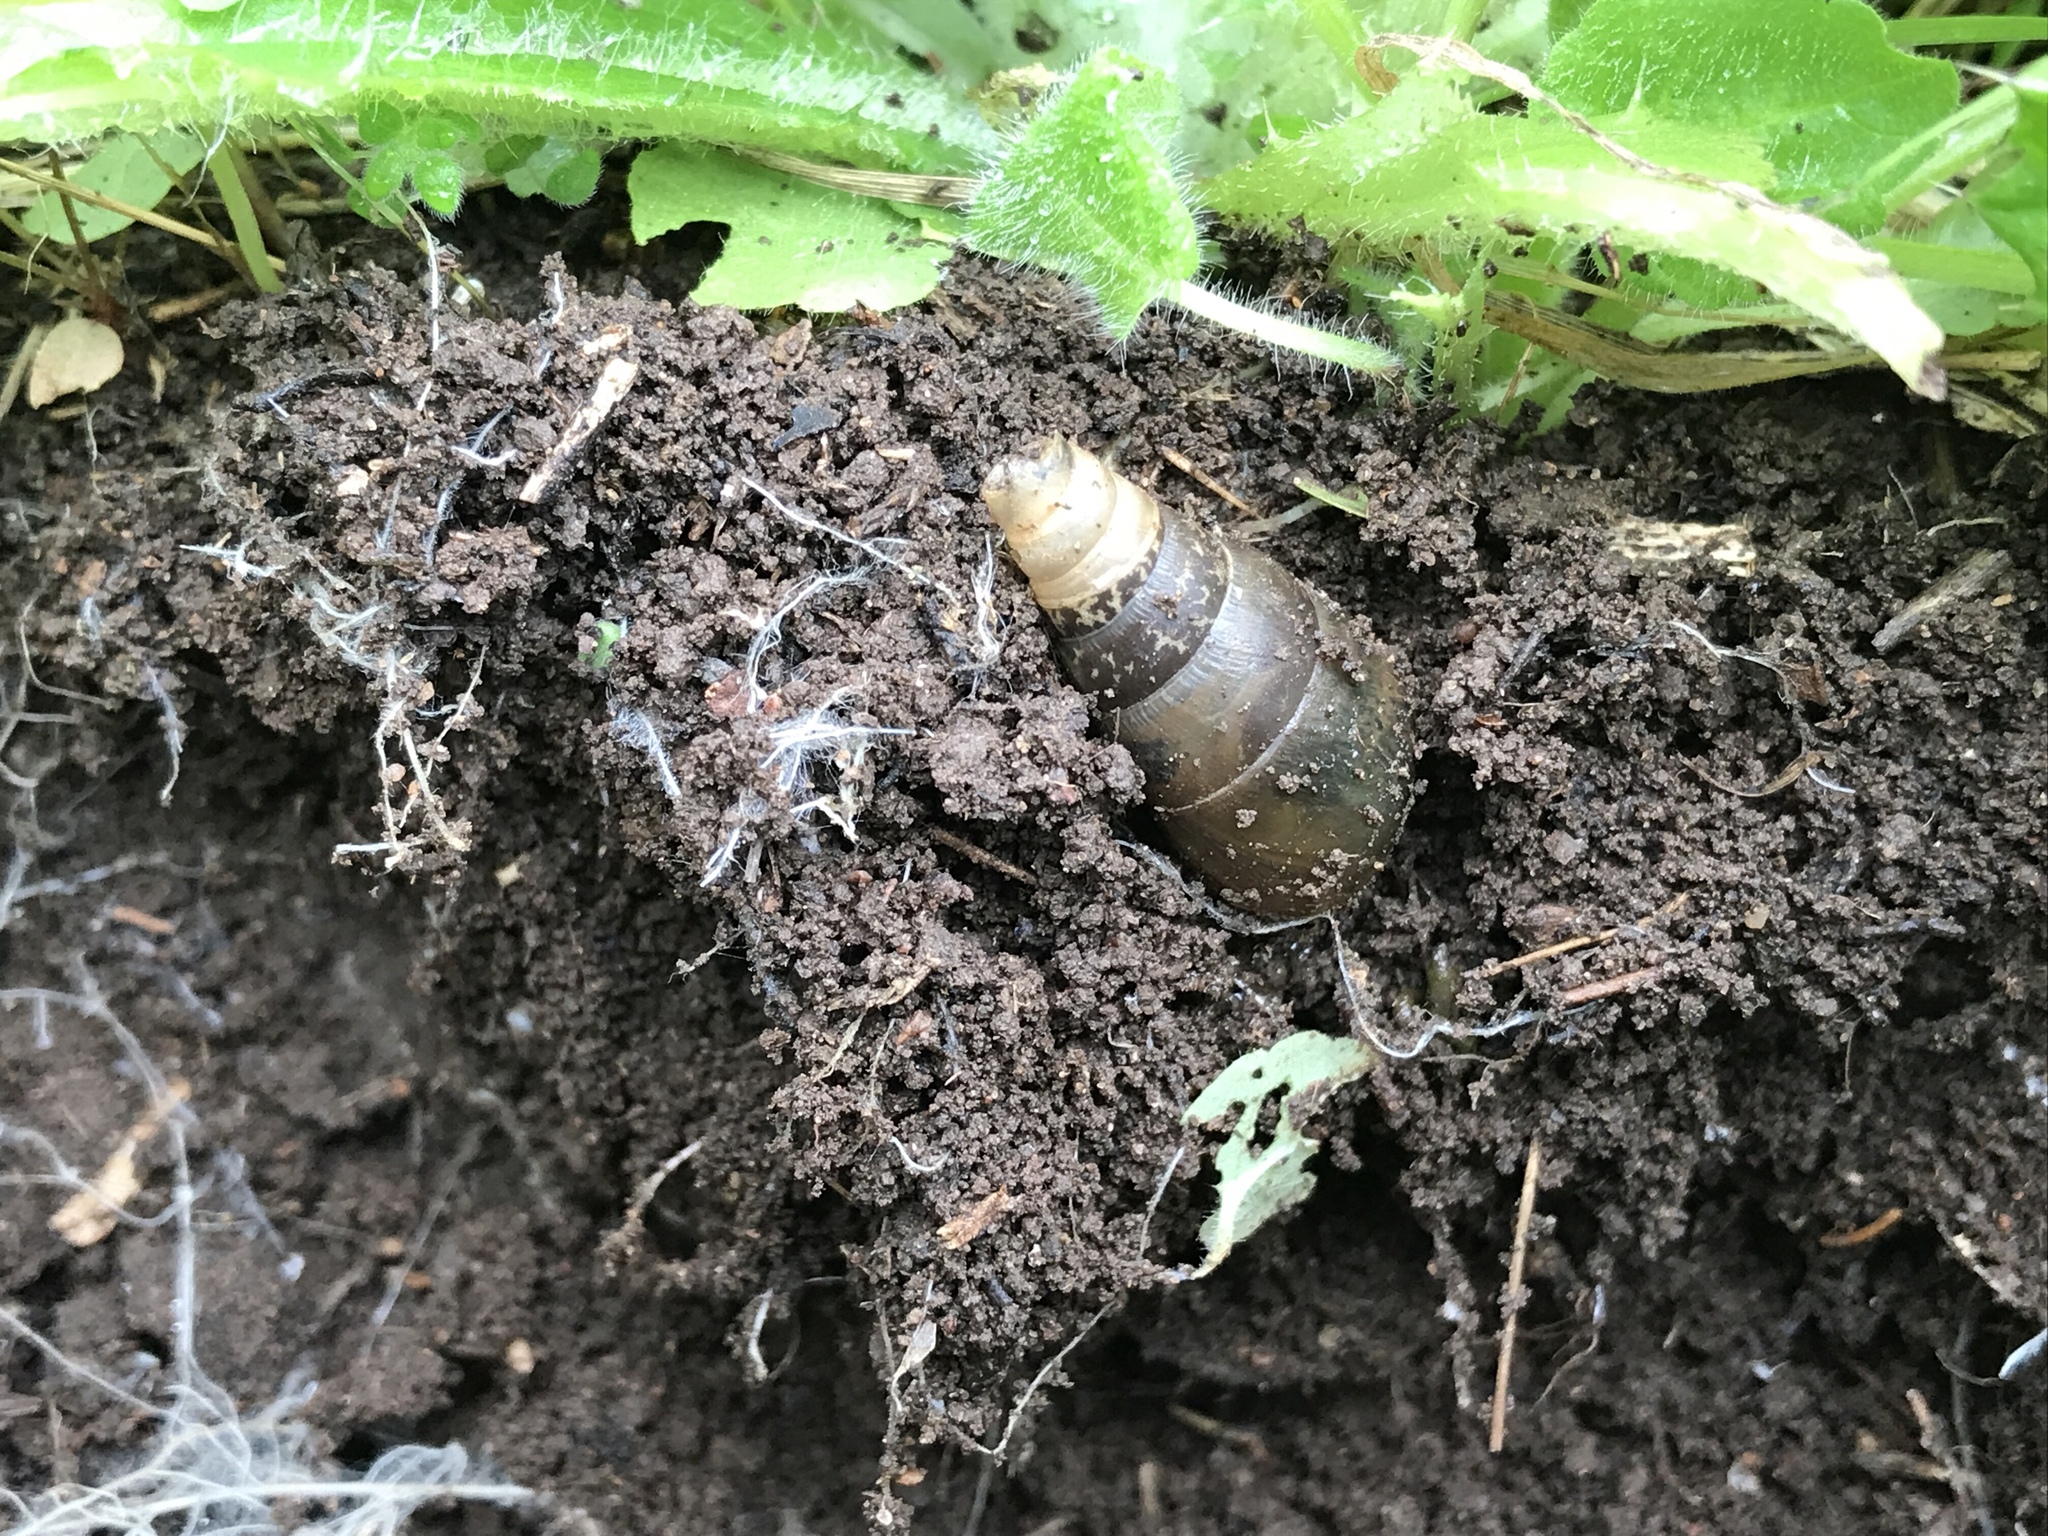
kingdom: Animalia
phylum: Mollusca
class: Gastropoda
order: Stylommatophora
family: Achatinidae
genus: Rumina
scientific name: Rumina decollata
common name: Decollate snail
